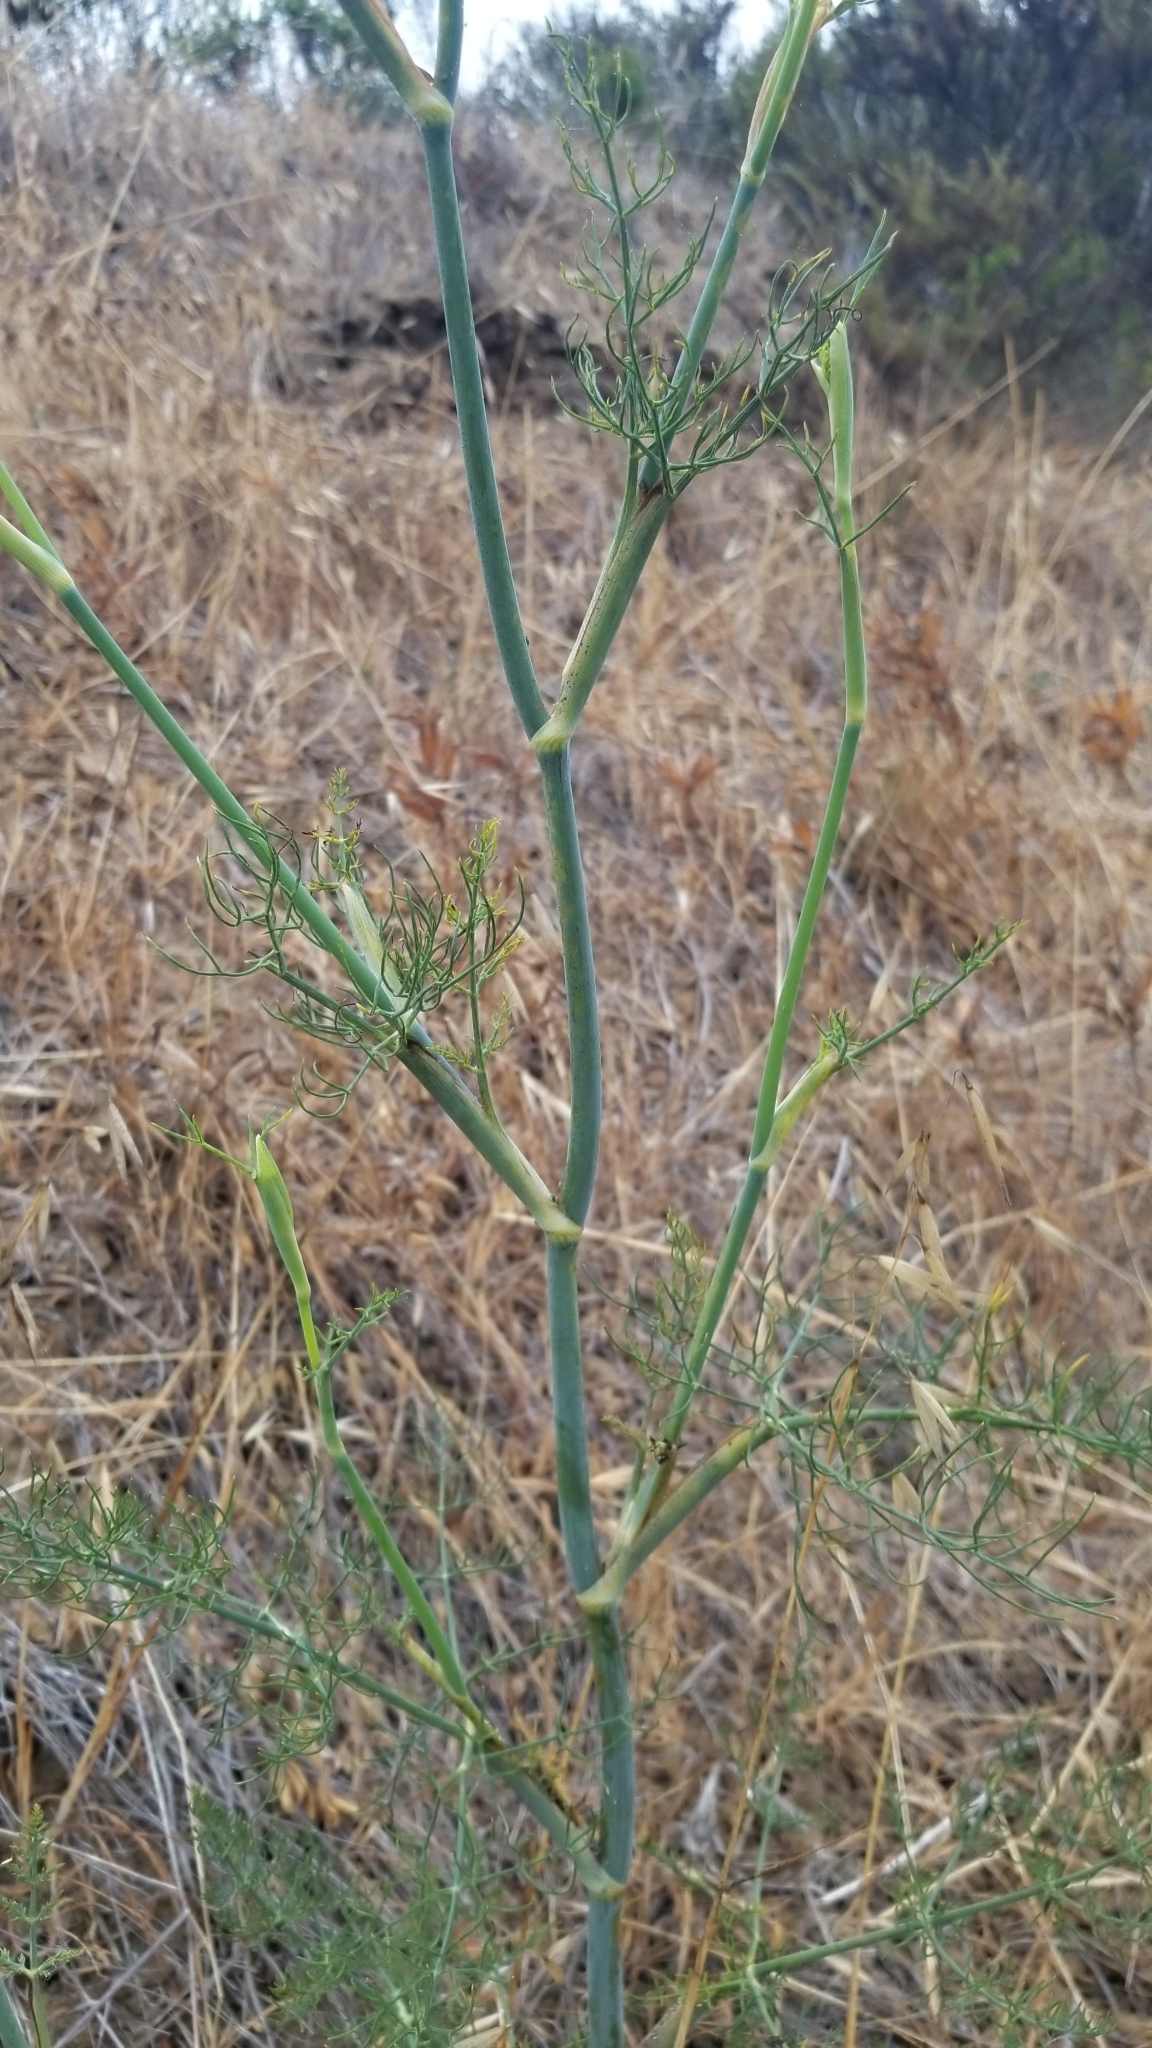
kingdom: Plantae
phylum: Tracheophyta
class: Magnoliopsida
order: Apiales
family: Apiaceae
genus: Foeniculum
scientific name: Foeniculum vulgare
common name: Fennel
